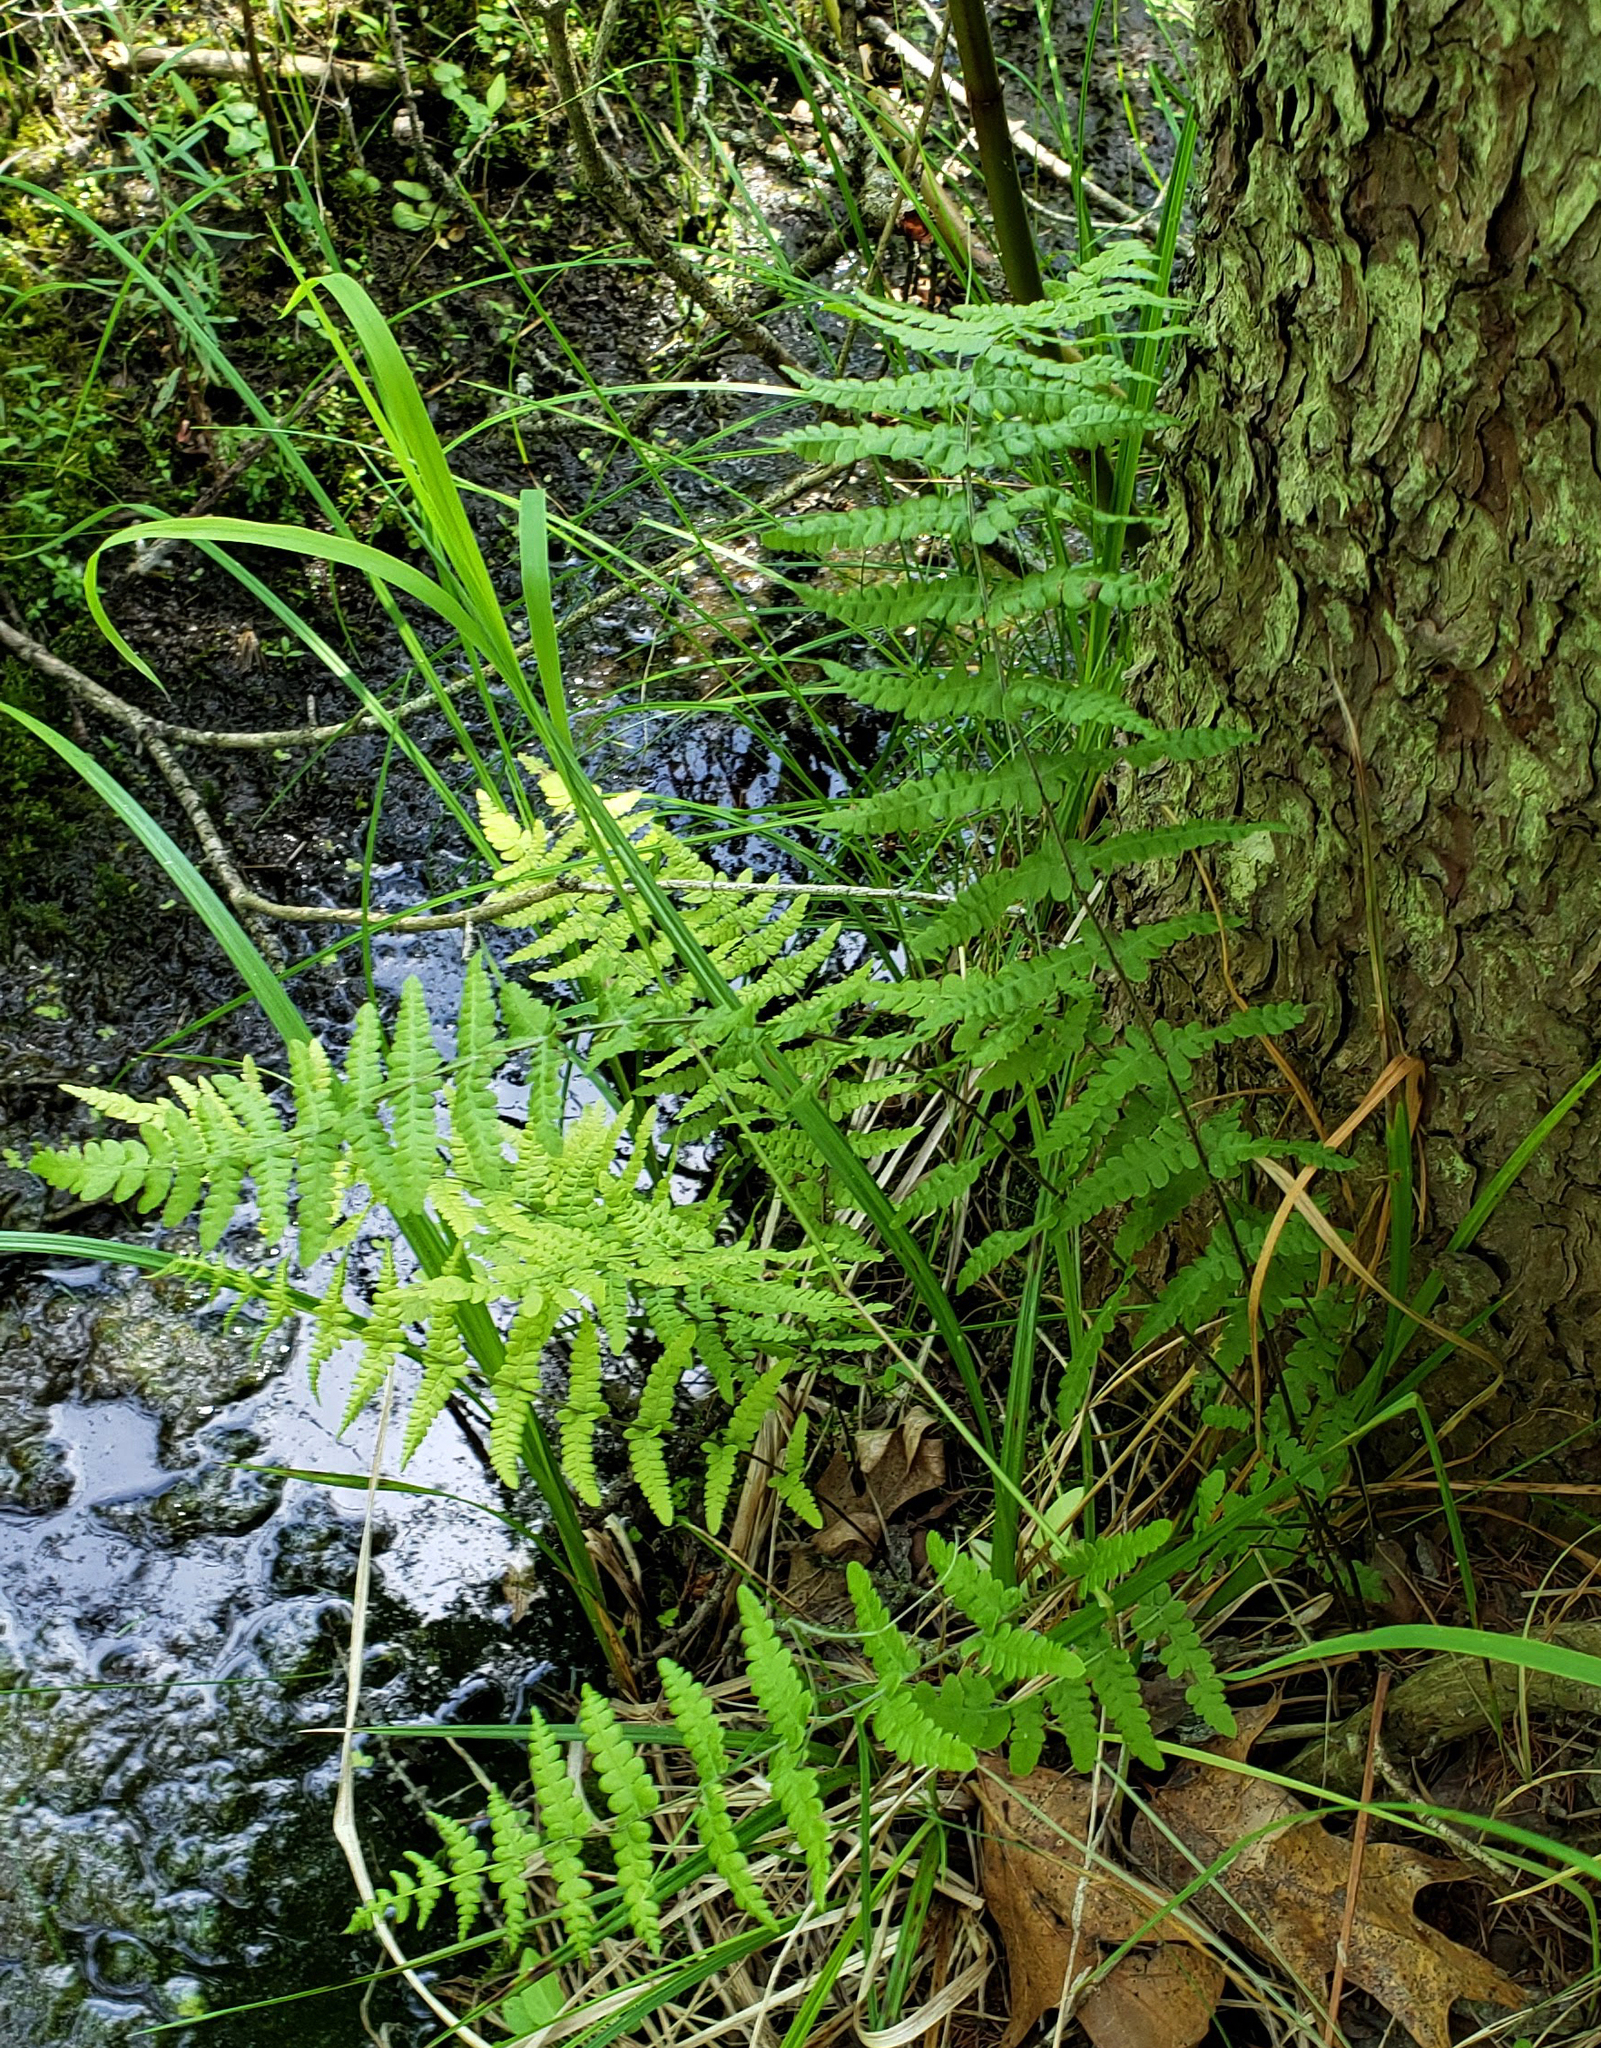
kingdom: Plantae
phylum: Tracheophyta
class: Polypodiopsida
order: Polypodiales
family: Dryopteridaceae
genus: Dryopteris
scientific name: Dryopteris cristata
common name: Crested wood fern
